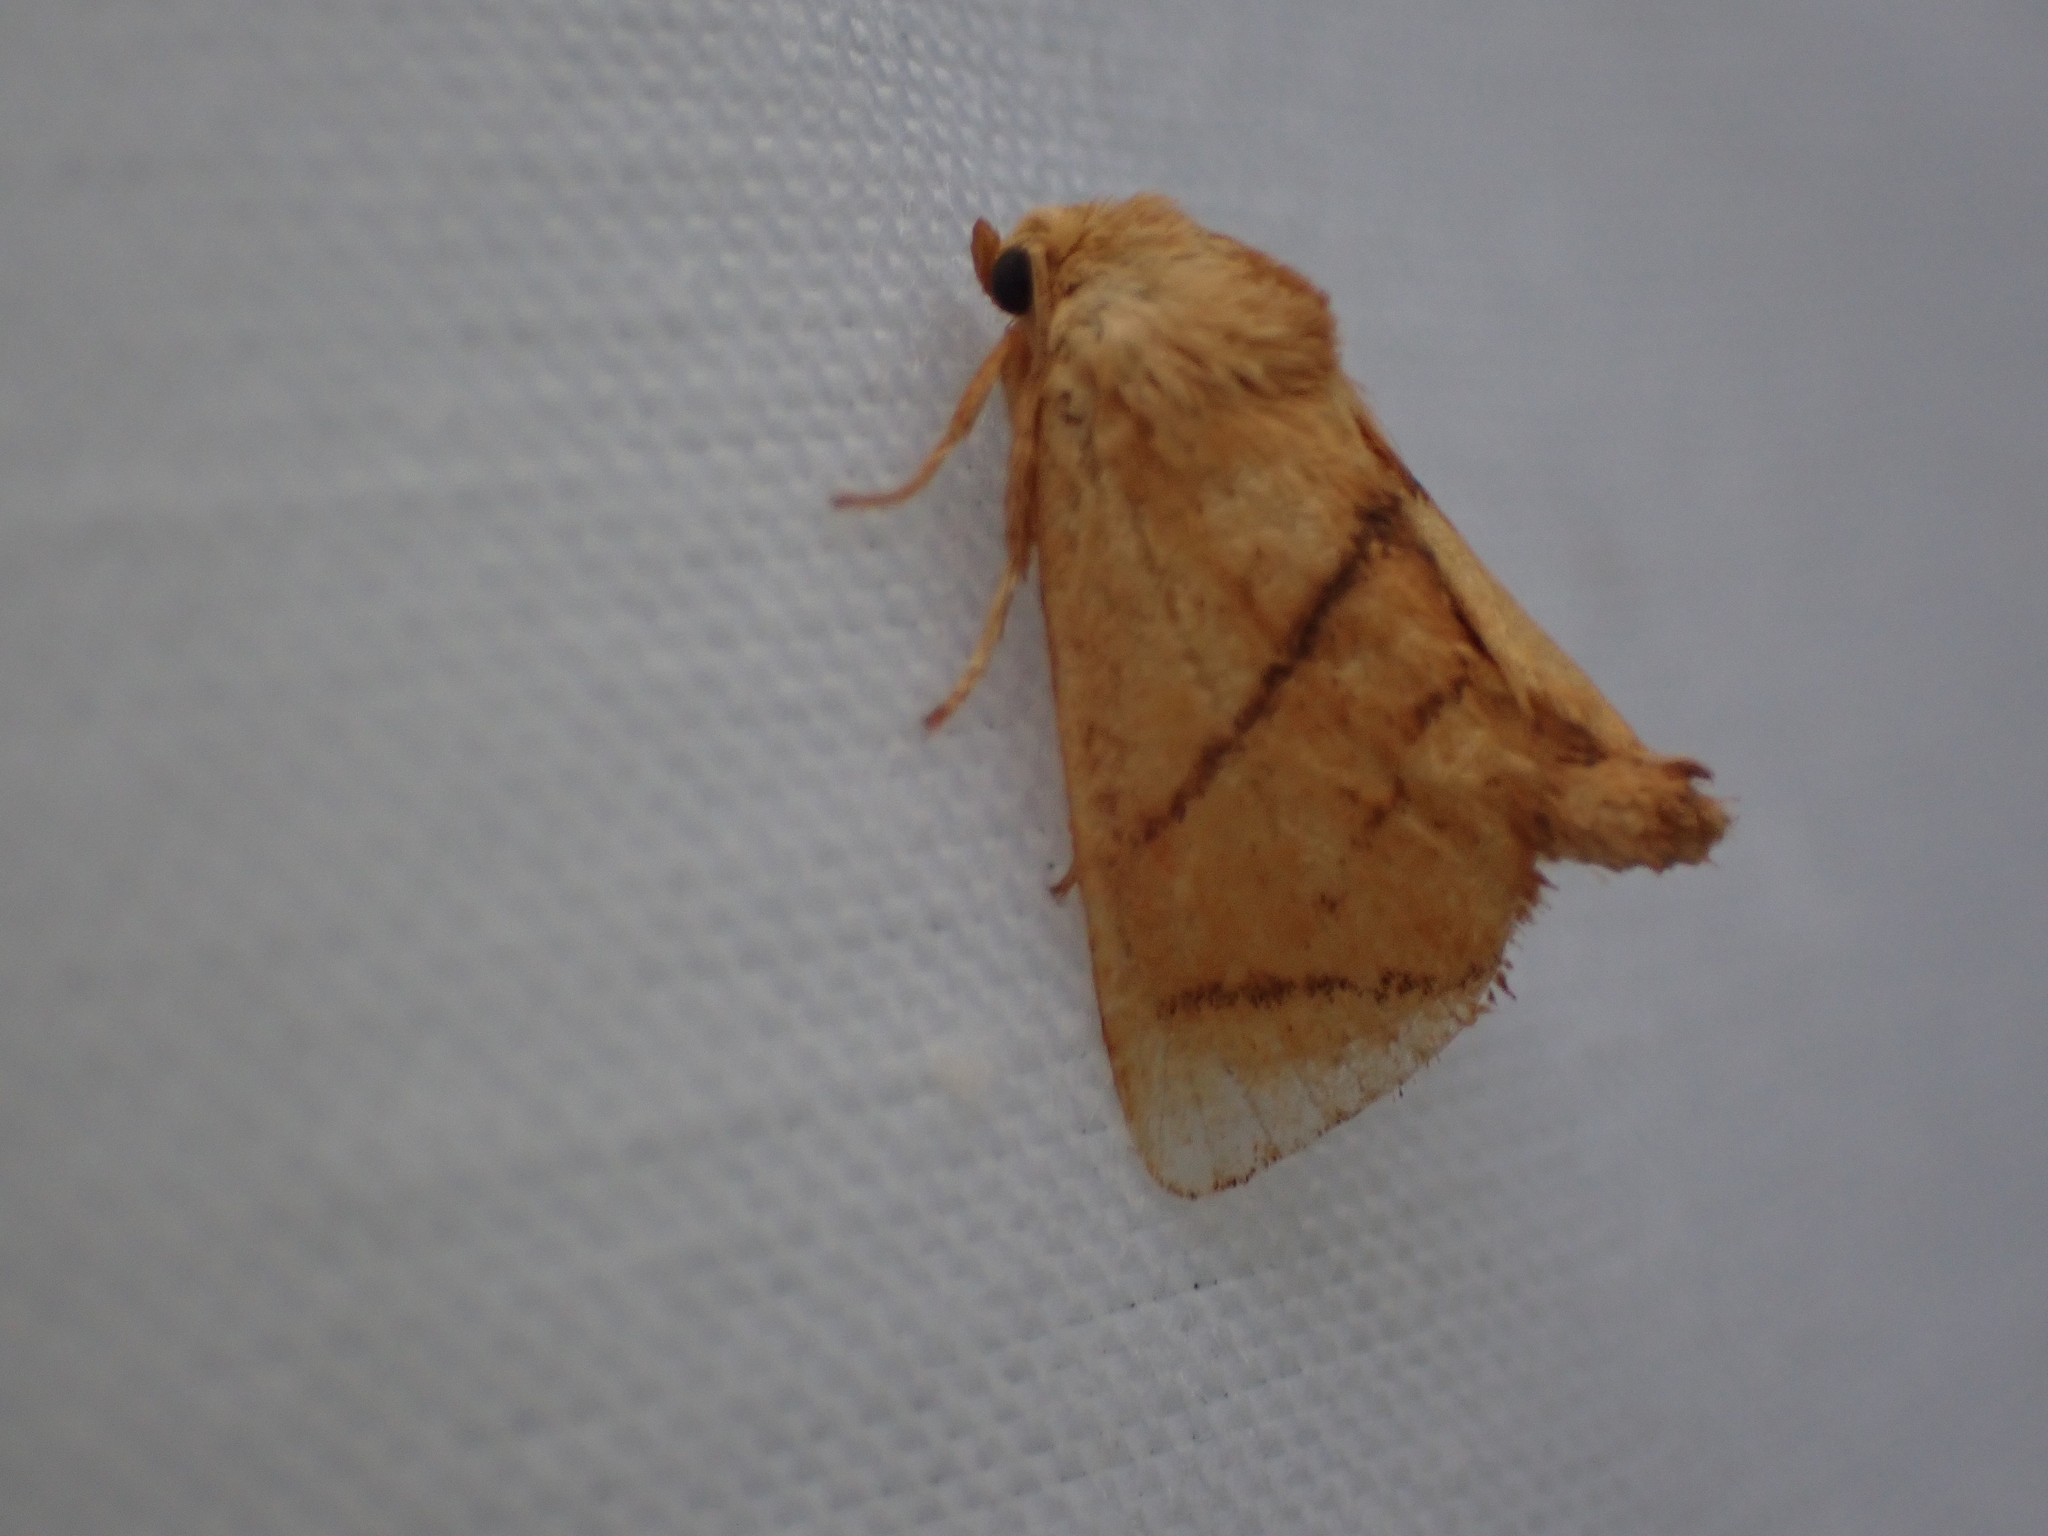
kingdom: Animalia
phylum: Arthropoda
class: Insecta
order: Lepidoptera
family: Limacodidae
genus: Apoda
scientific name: Apoda y-inversa
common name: Yellow-collared slug moth
